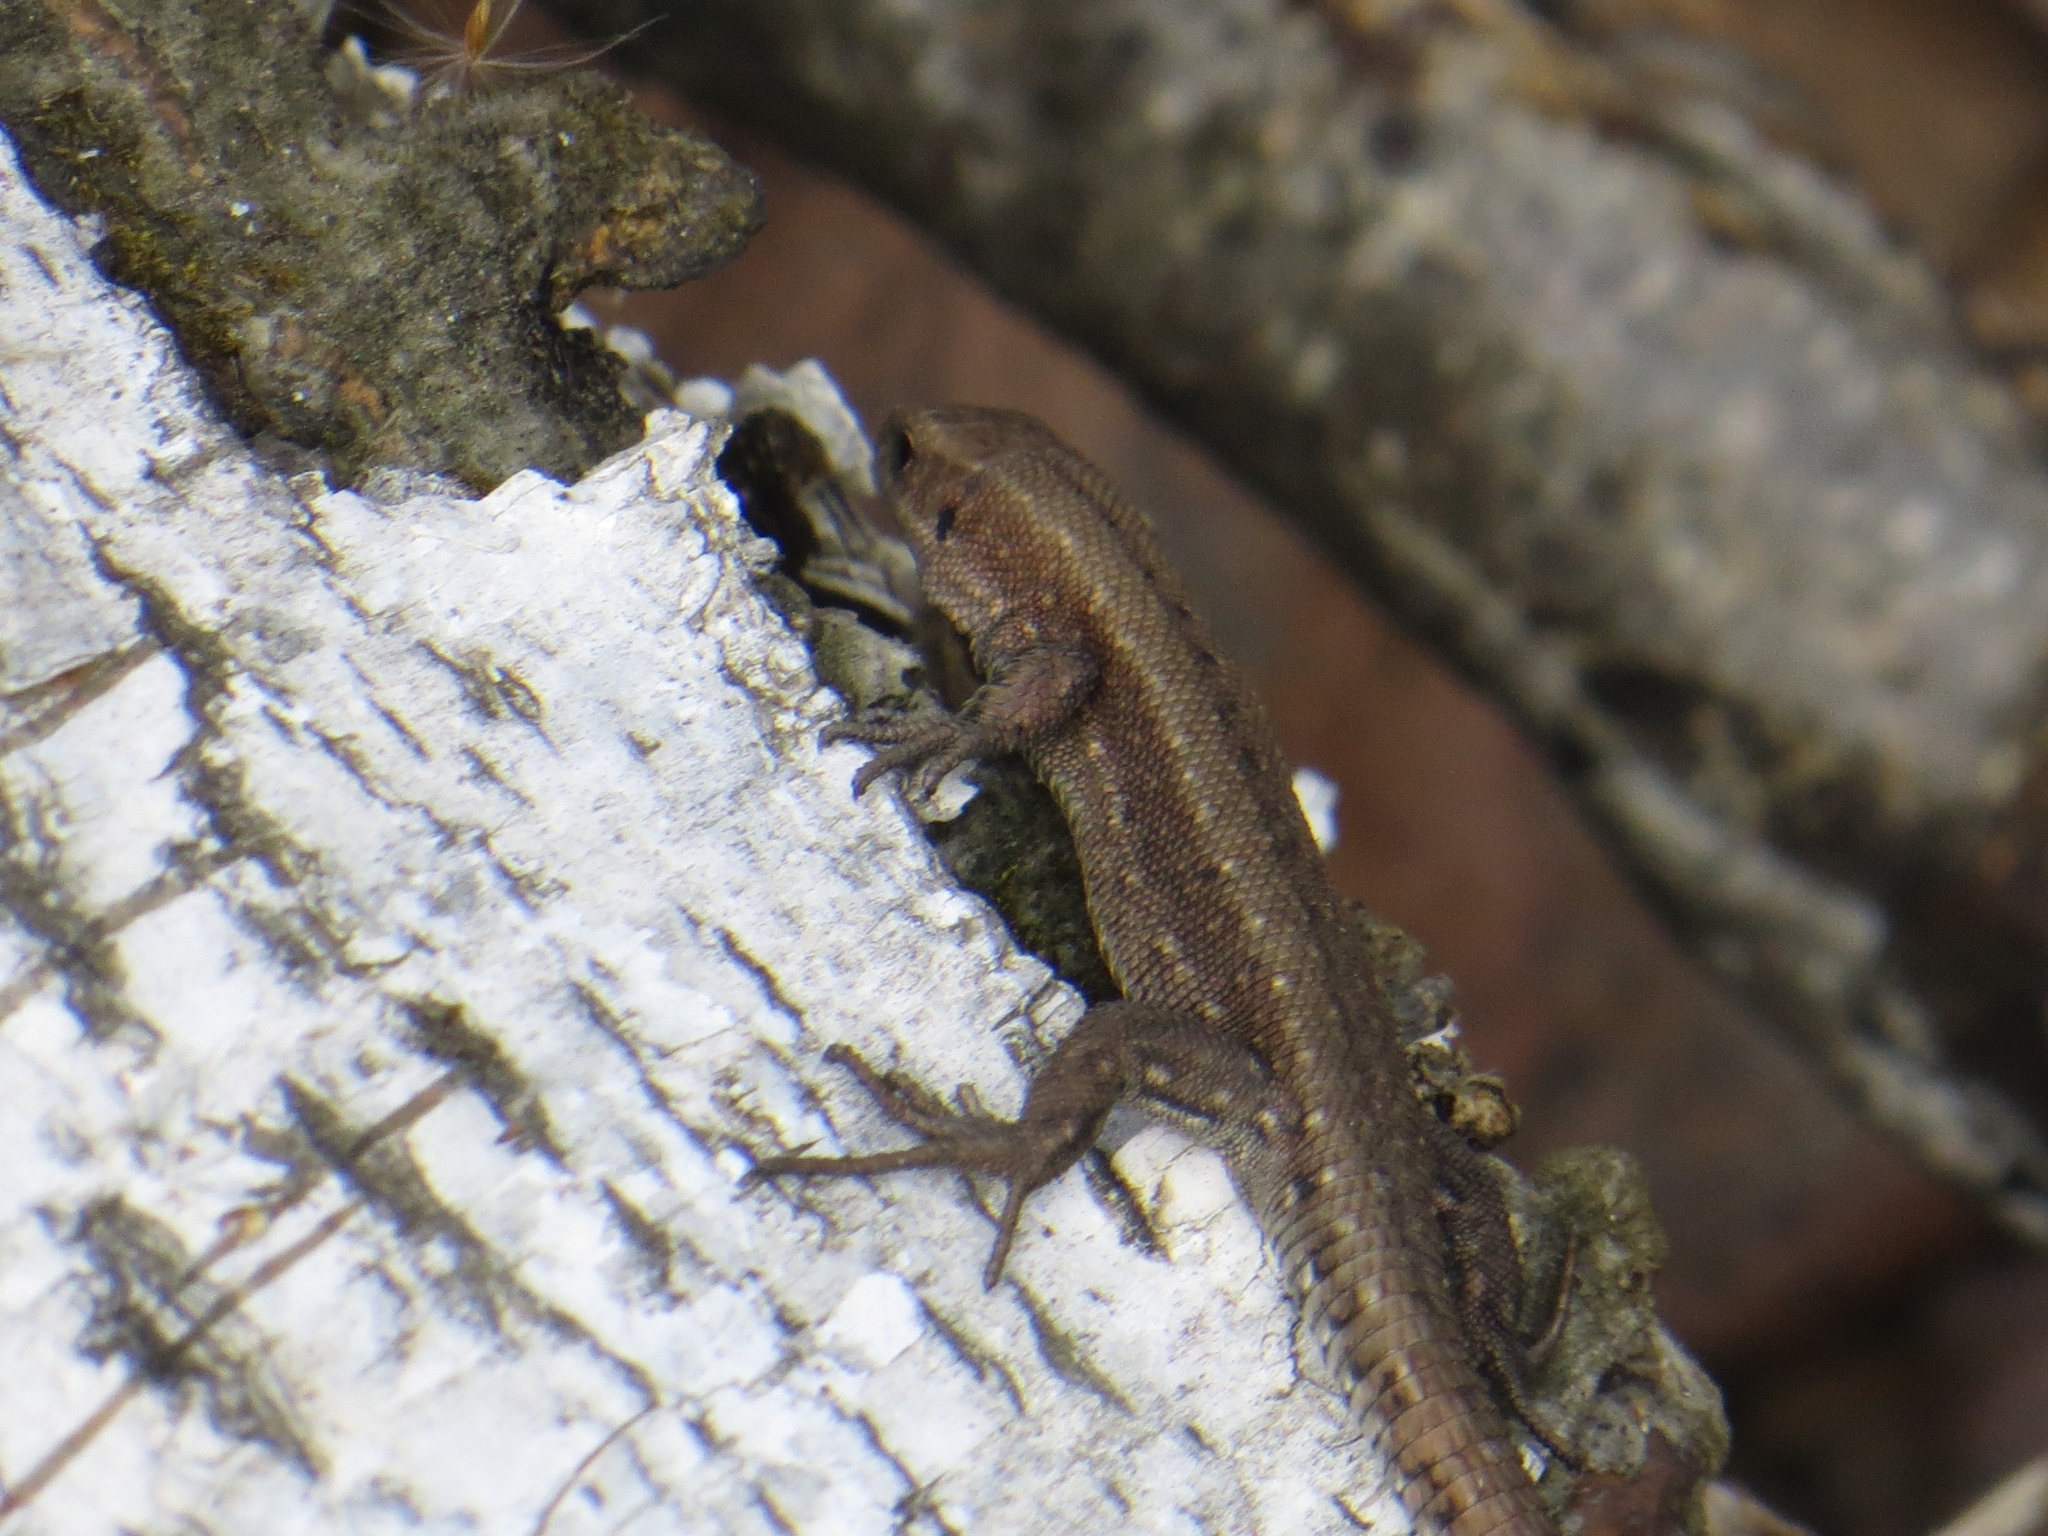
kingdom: Animalia
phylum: Chordata
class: Squamata
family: Lacertidae
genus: Zootoca
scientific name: Zootoca vivipara
